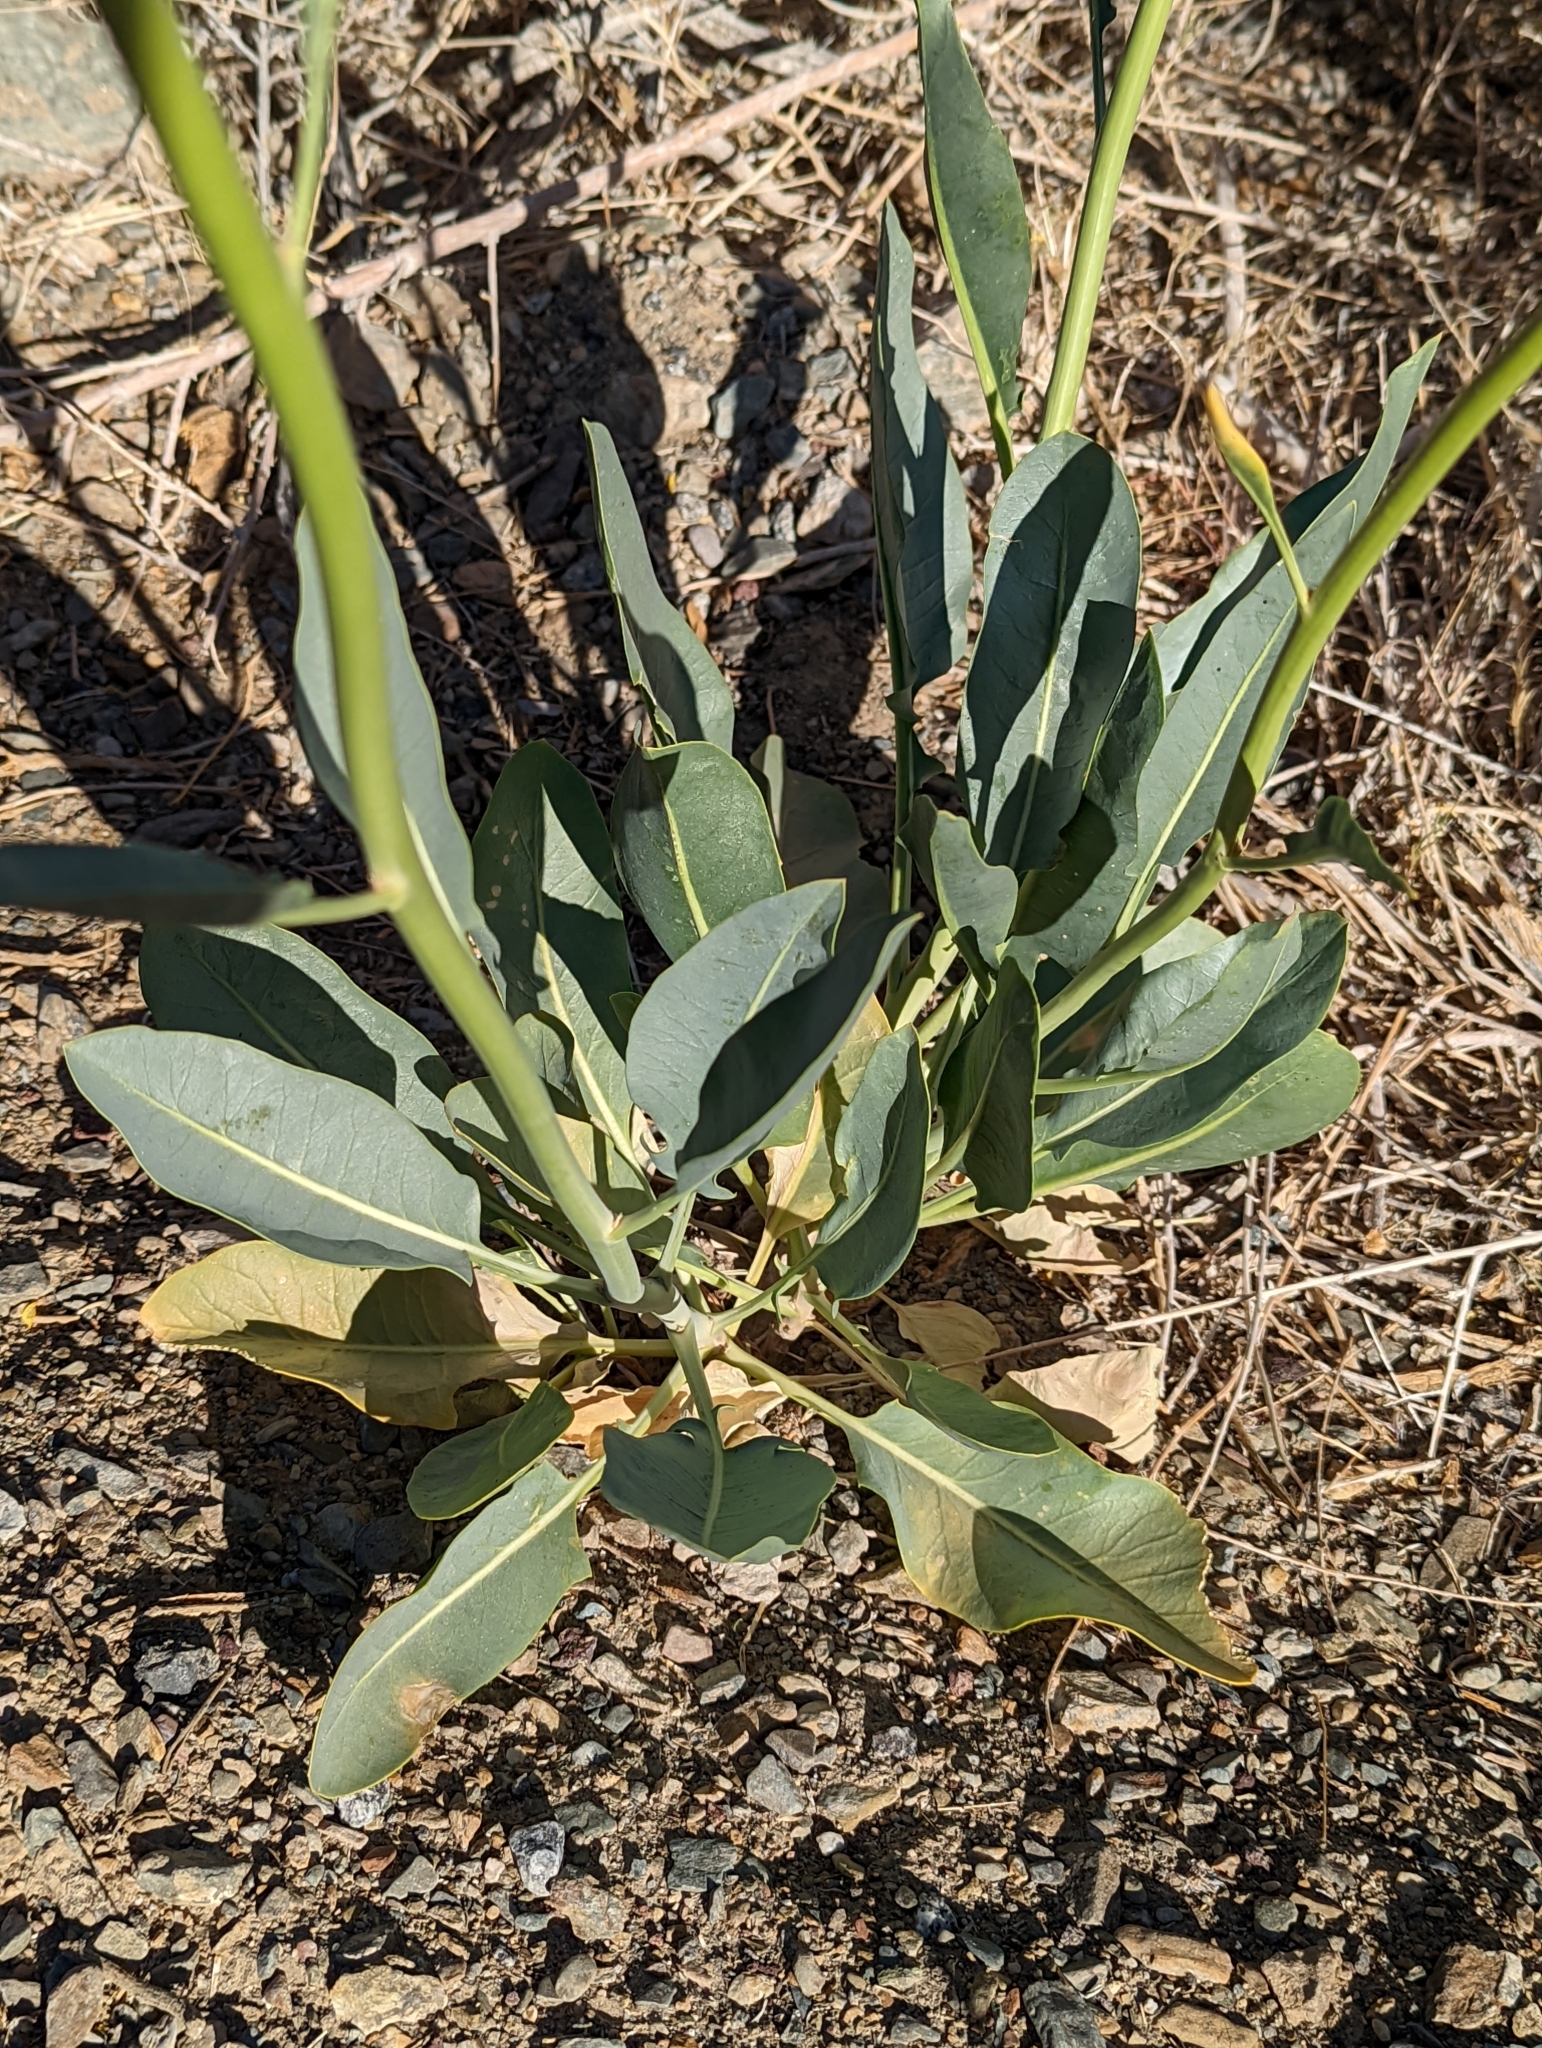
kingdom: Plantae
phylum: Tracheophyta
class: Magnoliopsida
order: Brassicales
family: Brassicaceae
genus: Stanleya
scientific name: Stanleya elata
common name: Panamint prince's plume
